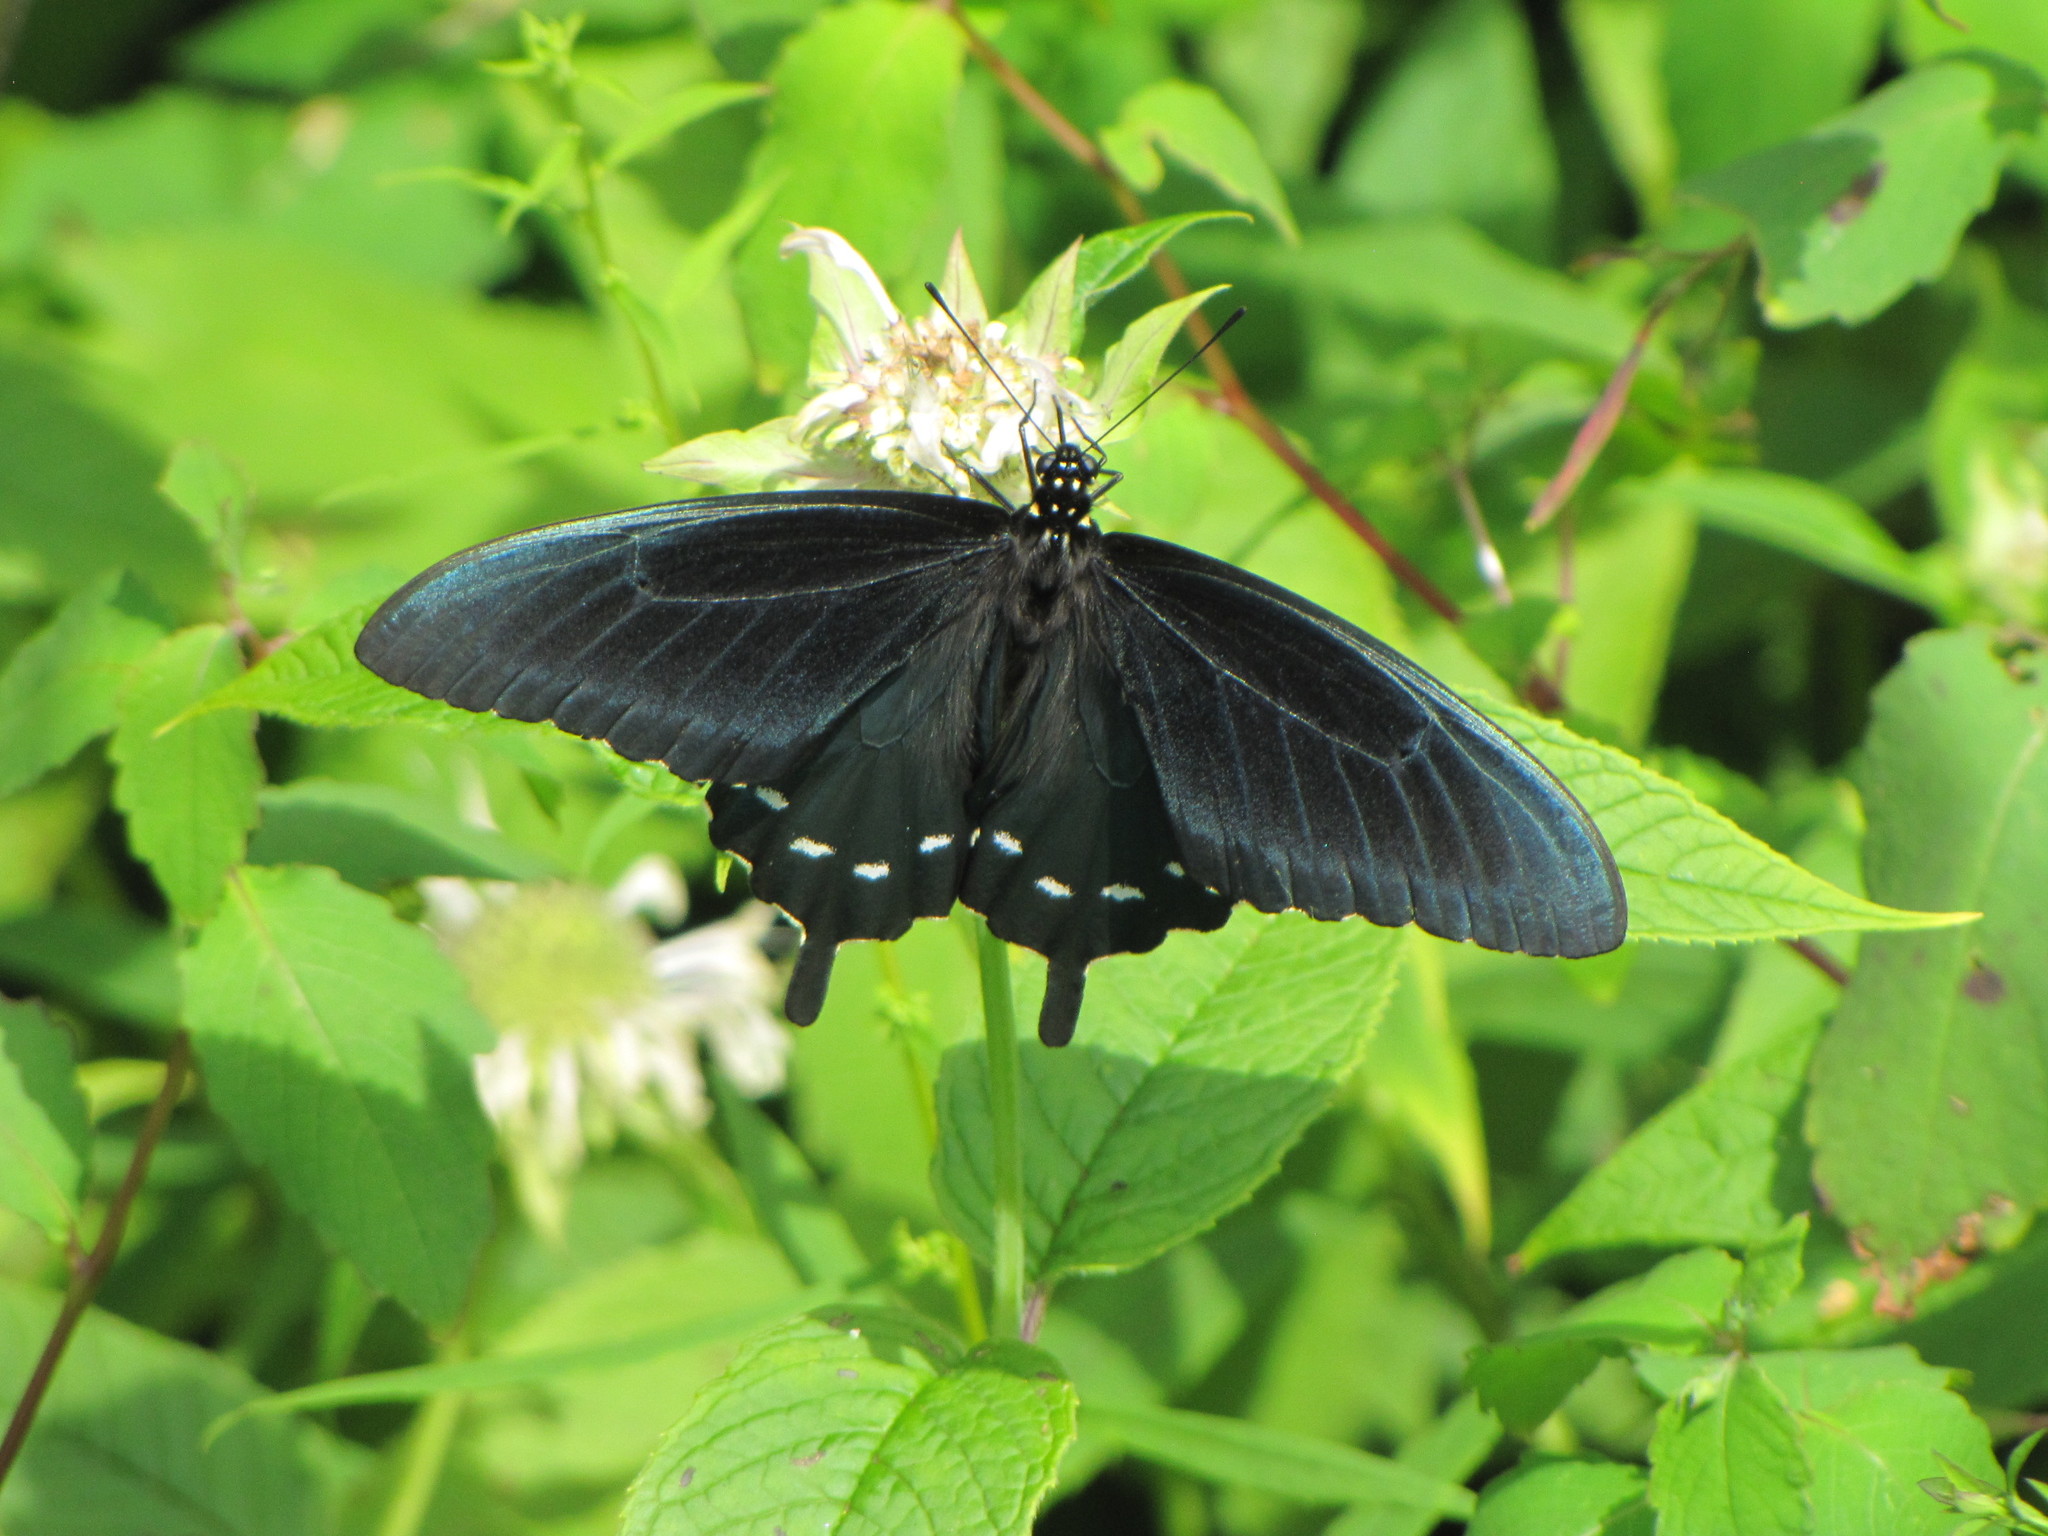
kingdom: Animalia
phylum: Arthropoda
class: Insecta
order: Lepidoptera
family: Papilionidae
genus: Battus
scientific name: Battus philenor
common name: Pipevine swallowtail
